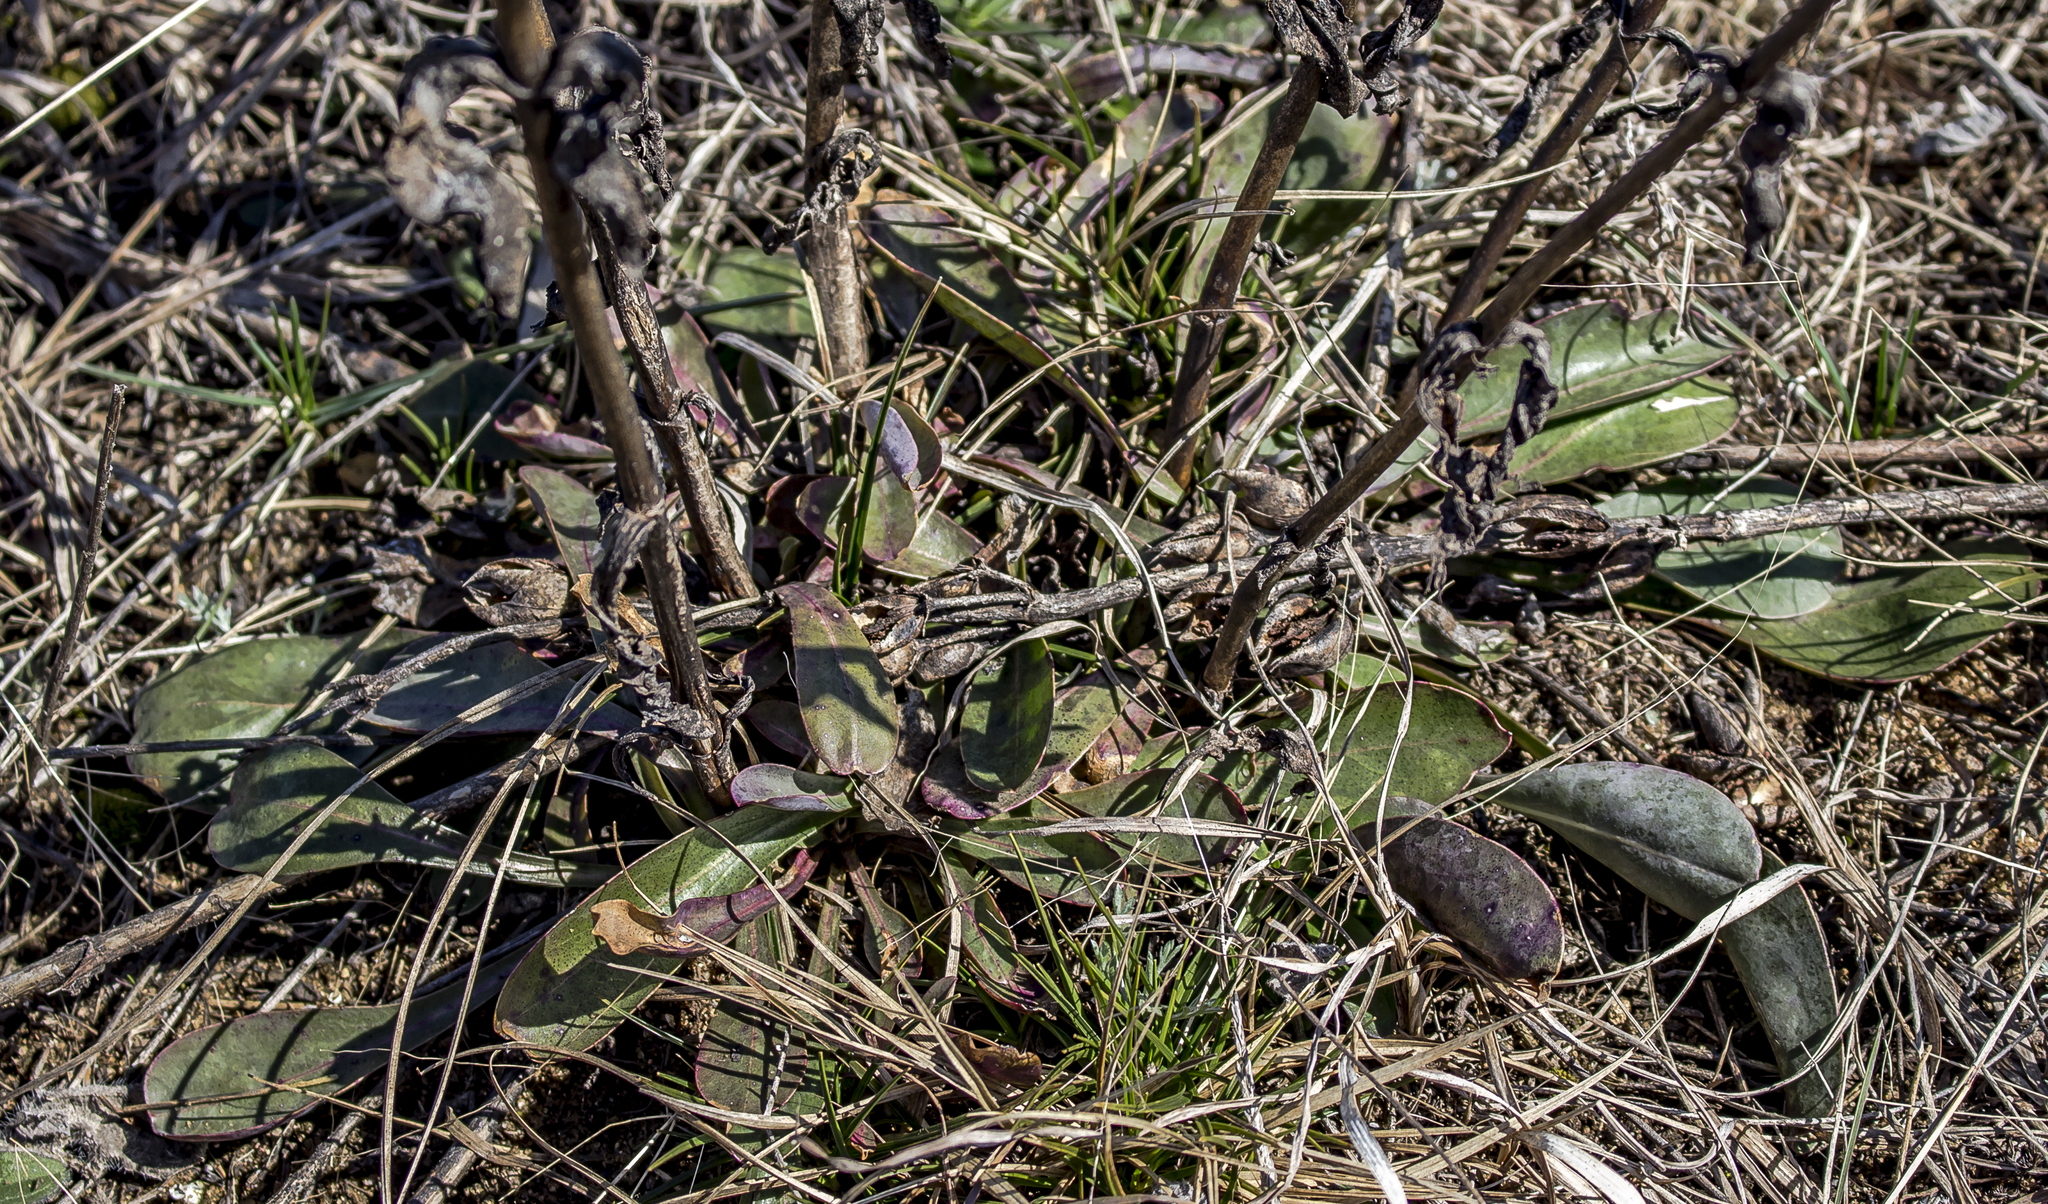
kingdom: Plantae
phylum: Tracheophyta
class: Magnoliopsida
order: Lamiales
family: Plantaginaceae
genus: Penstemon
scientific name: Penstemon
